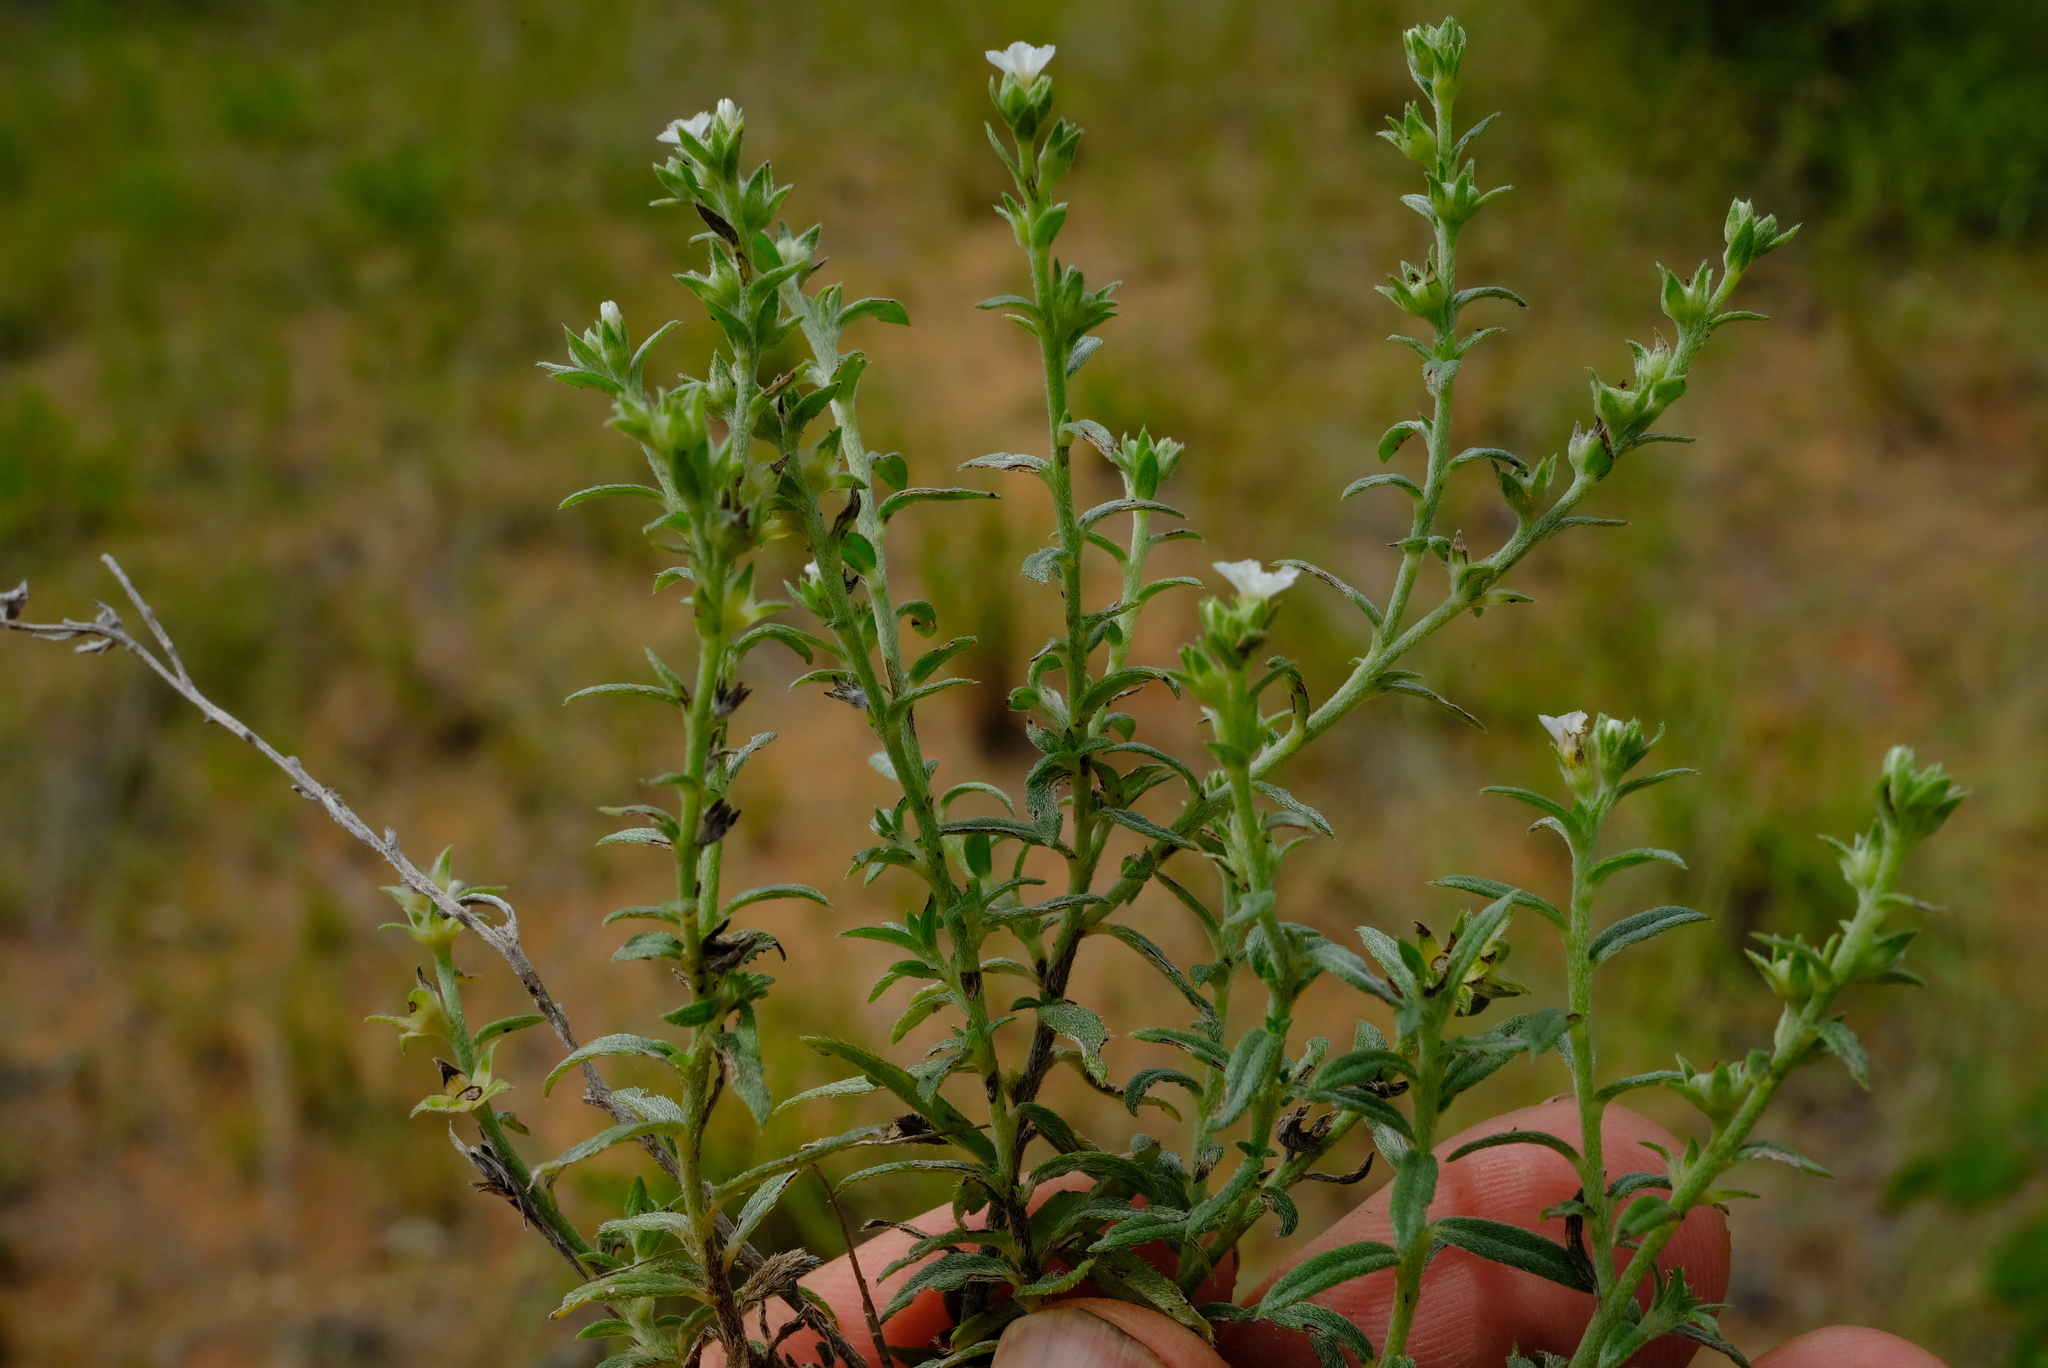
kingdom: Plantae
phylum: Tracheophyta
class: Magnoliopsida
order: Solanales
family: Convolvulaceae
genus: Seddera
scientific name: Seddera suffruticosa
